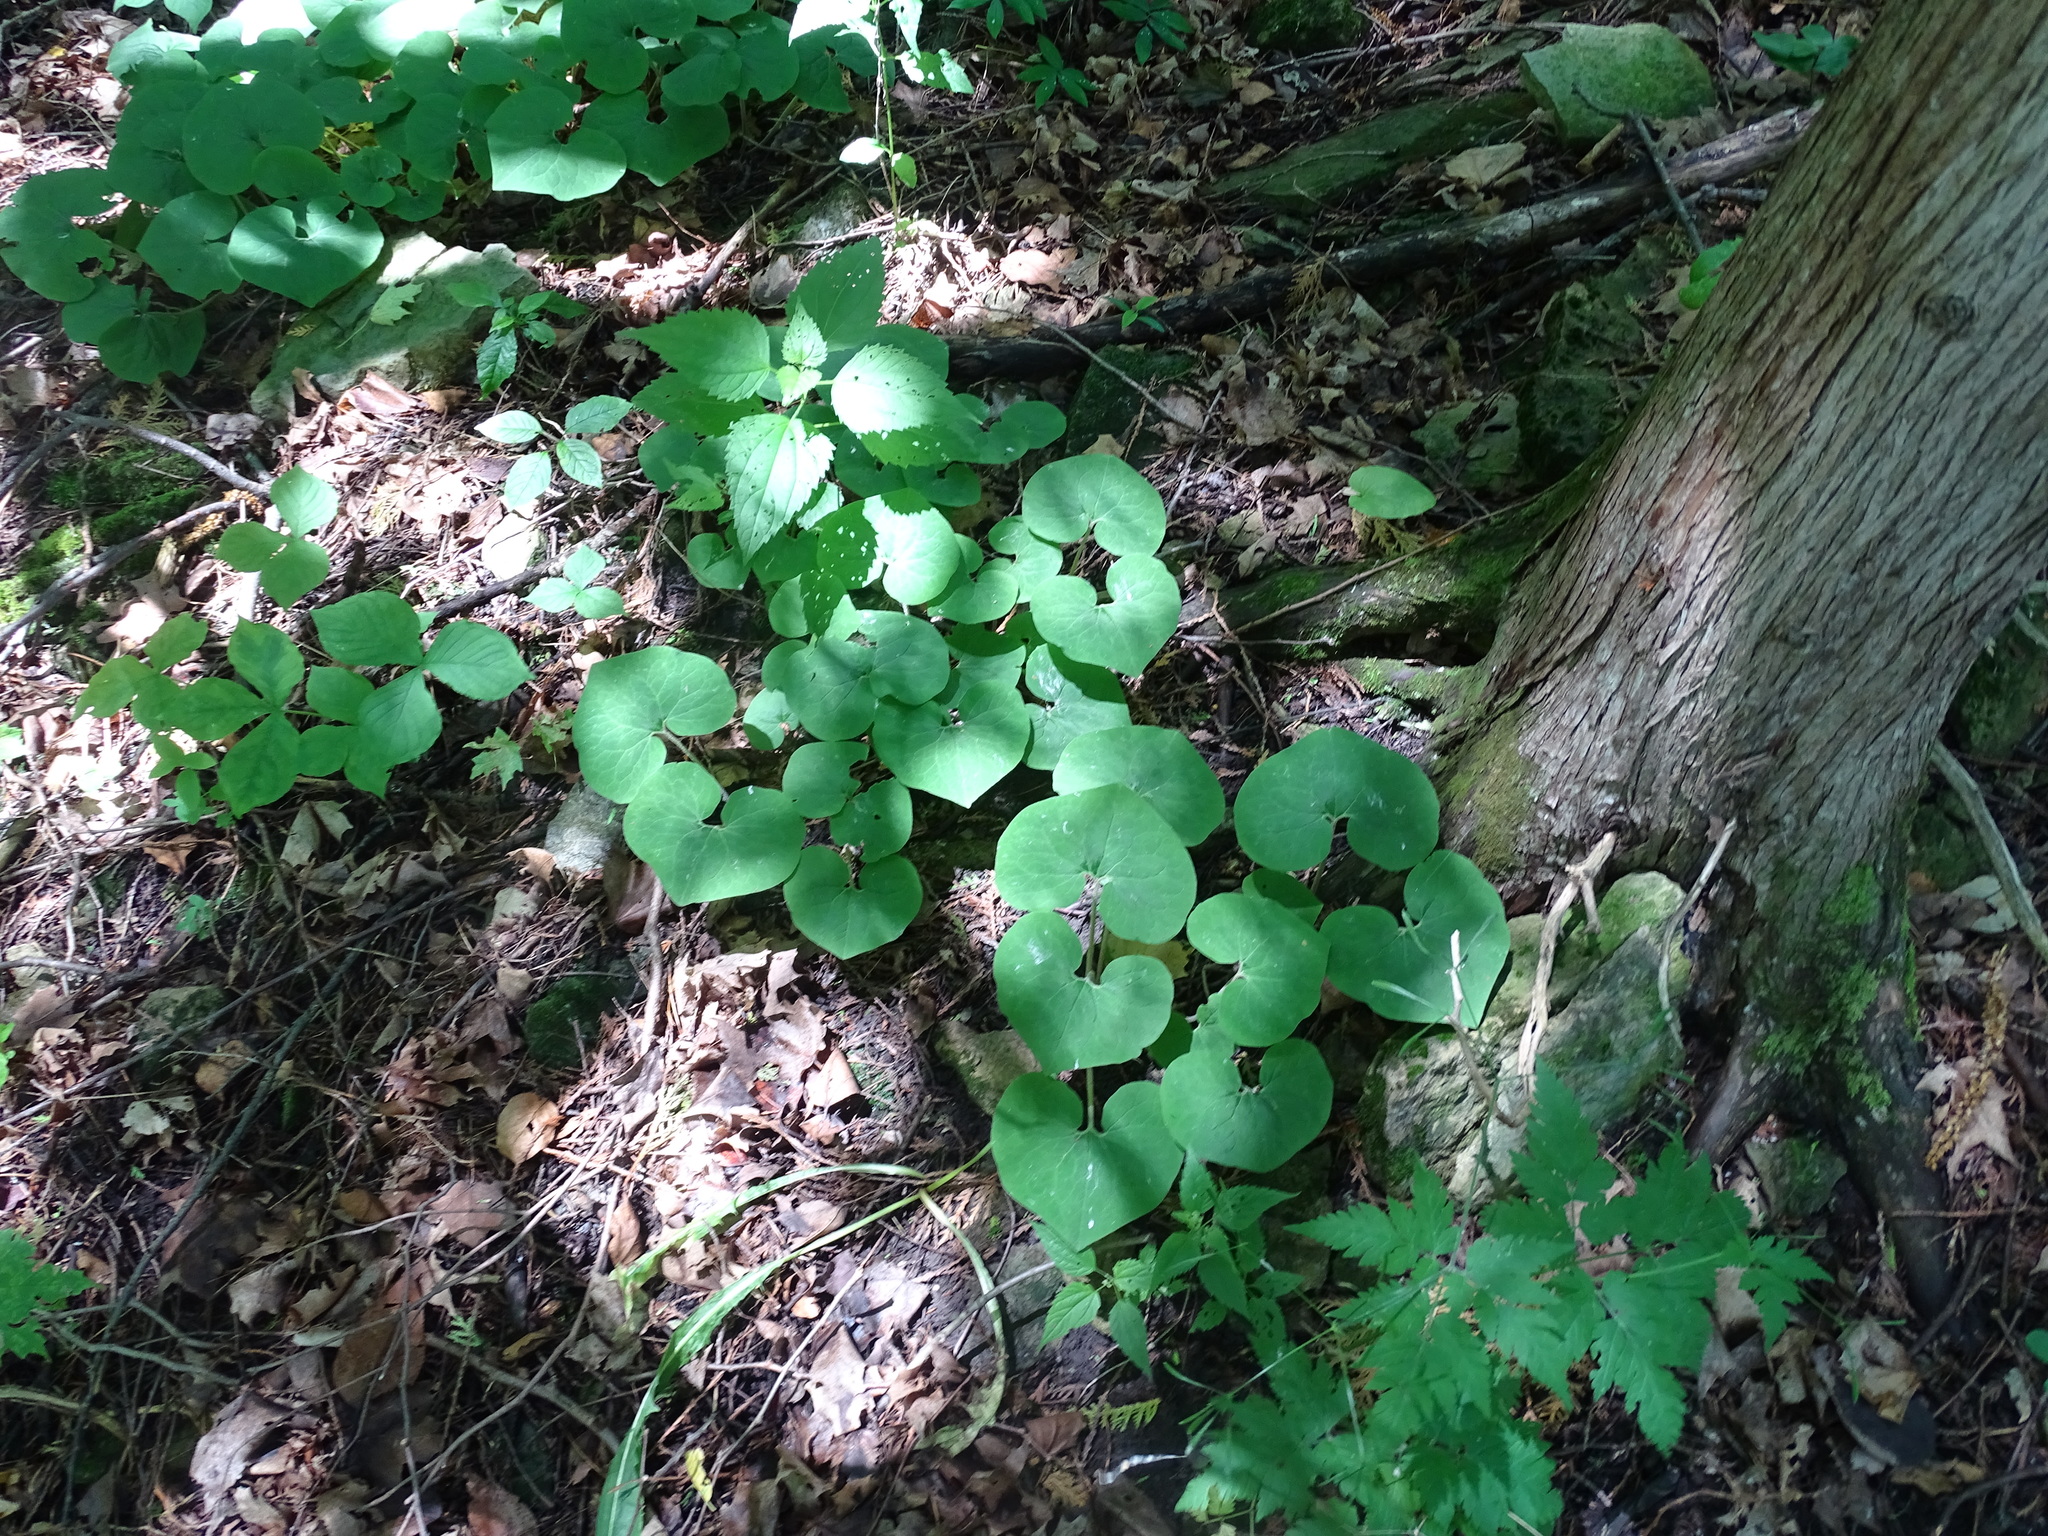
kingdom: Plantae
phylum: Tracheophyta
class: Magnoliopsida
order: Piperales
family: Aristolochiaceae
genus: Asarum
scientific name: Asarum canadense
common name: Wild ginger
